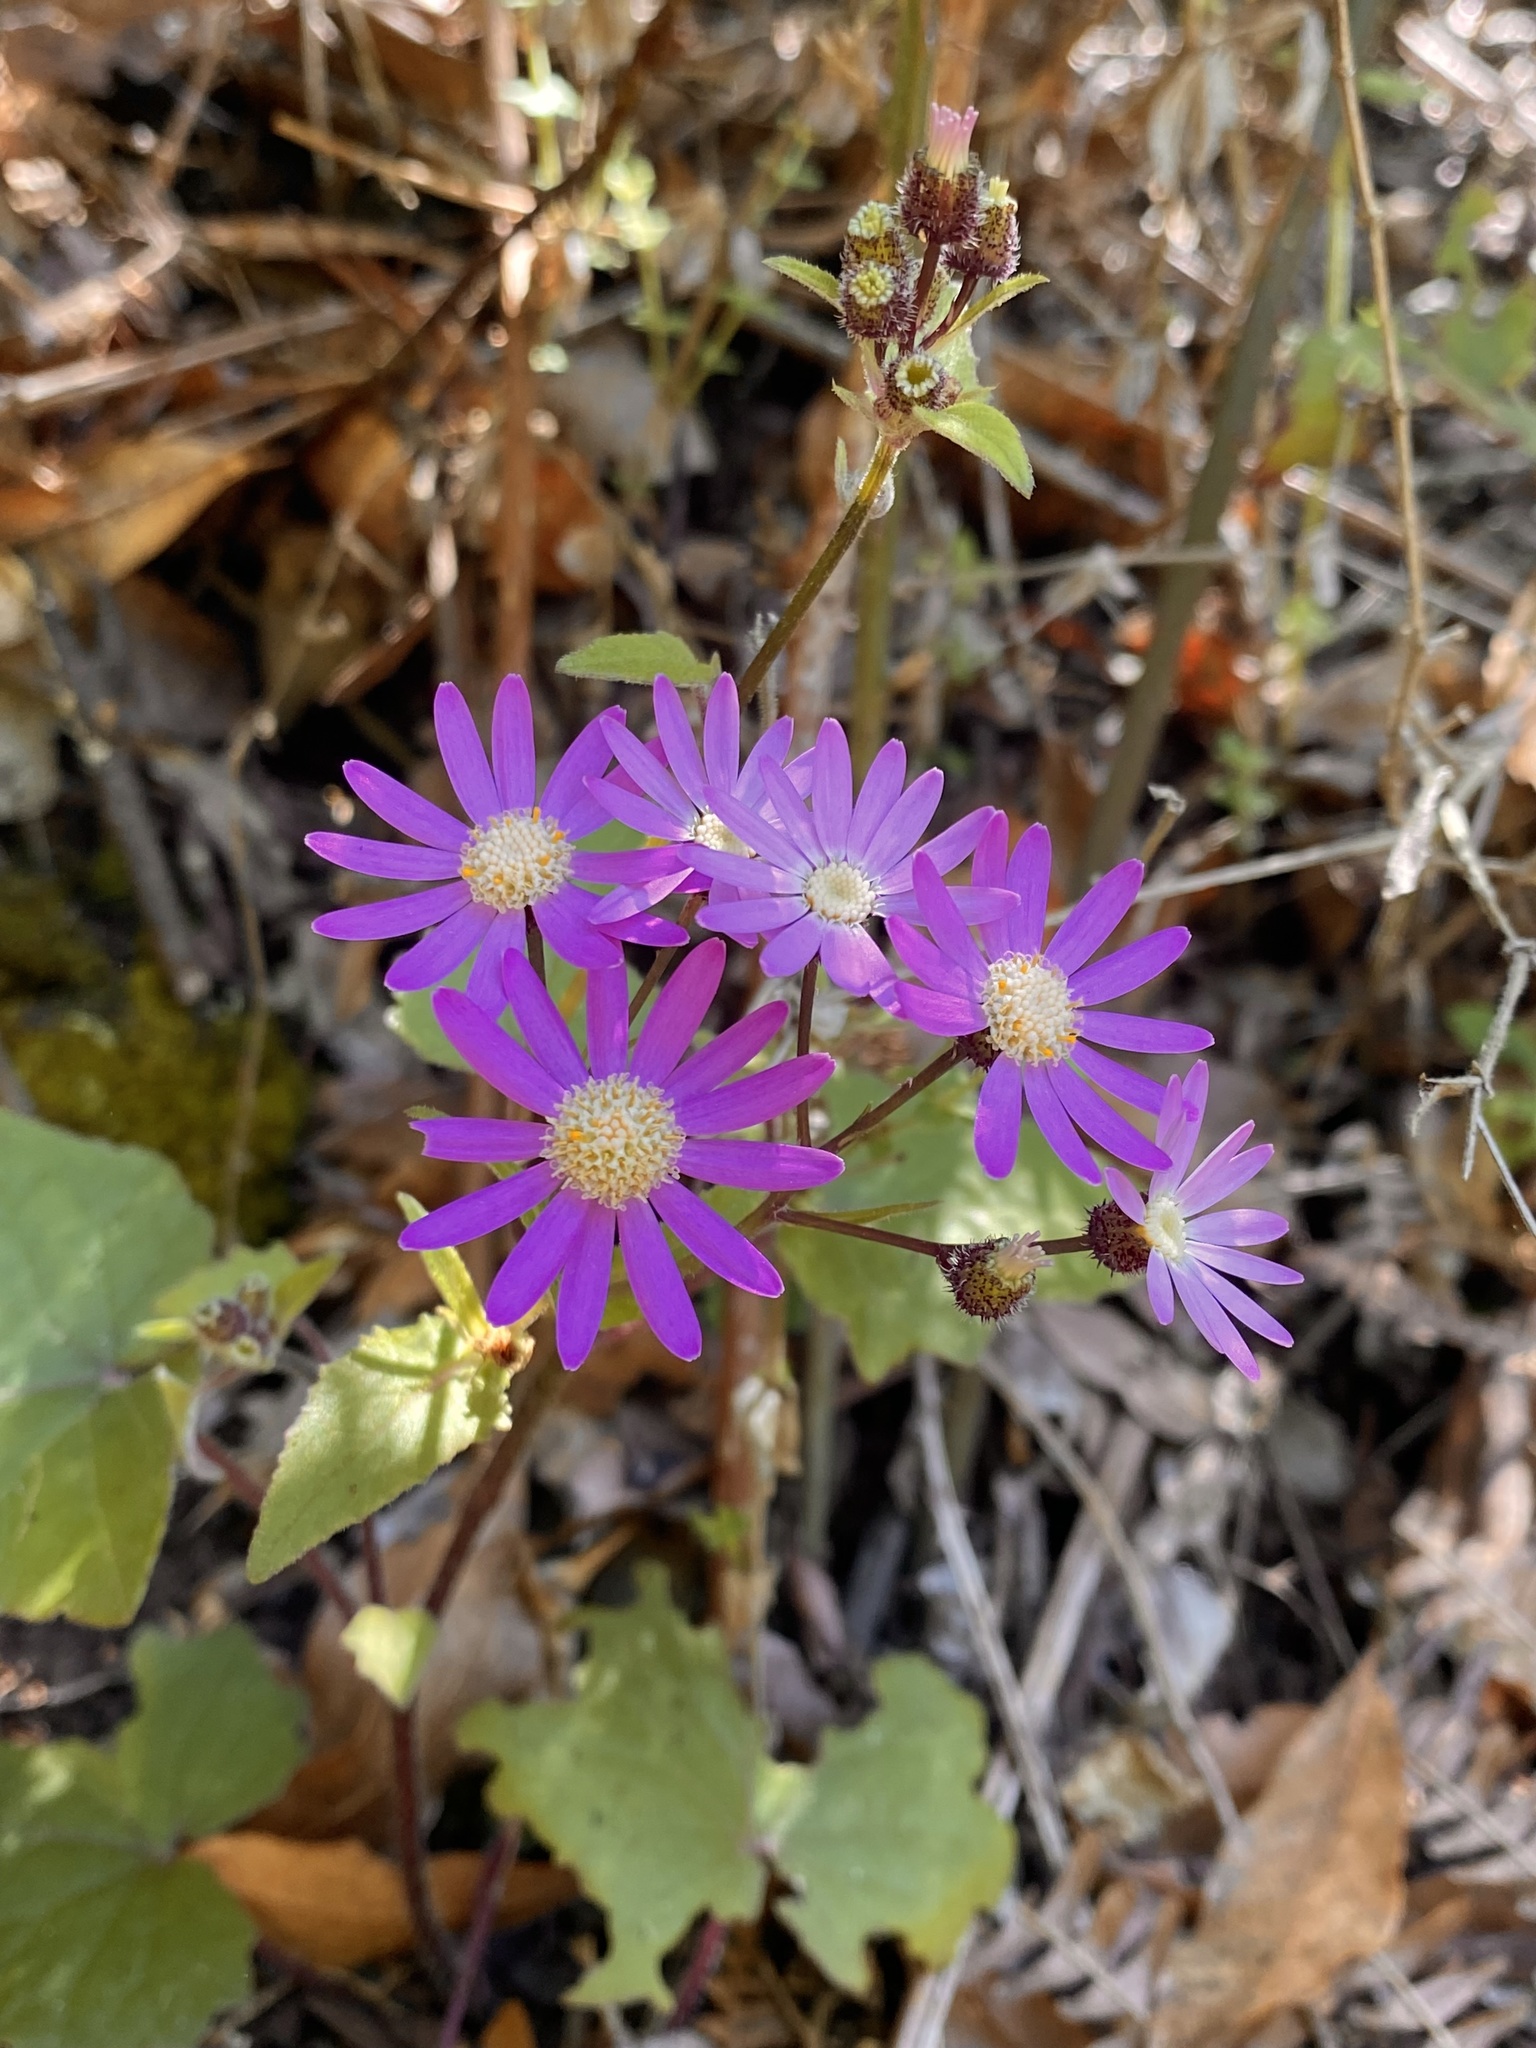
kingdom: Plantae
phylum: Tracheophyta
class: Magnoliopsida
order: Asterales
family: Asteraceae
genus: Pericallis
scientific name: Pericallis echinata
